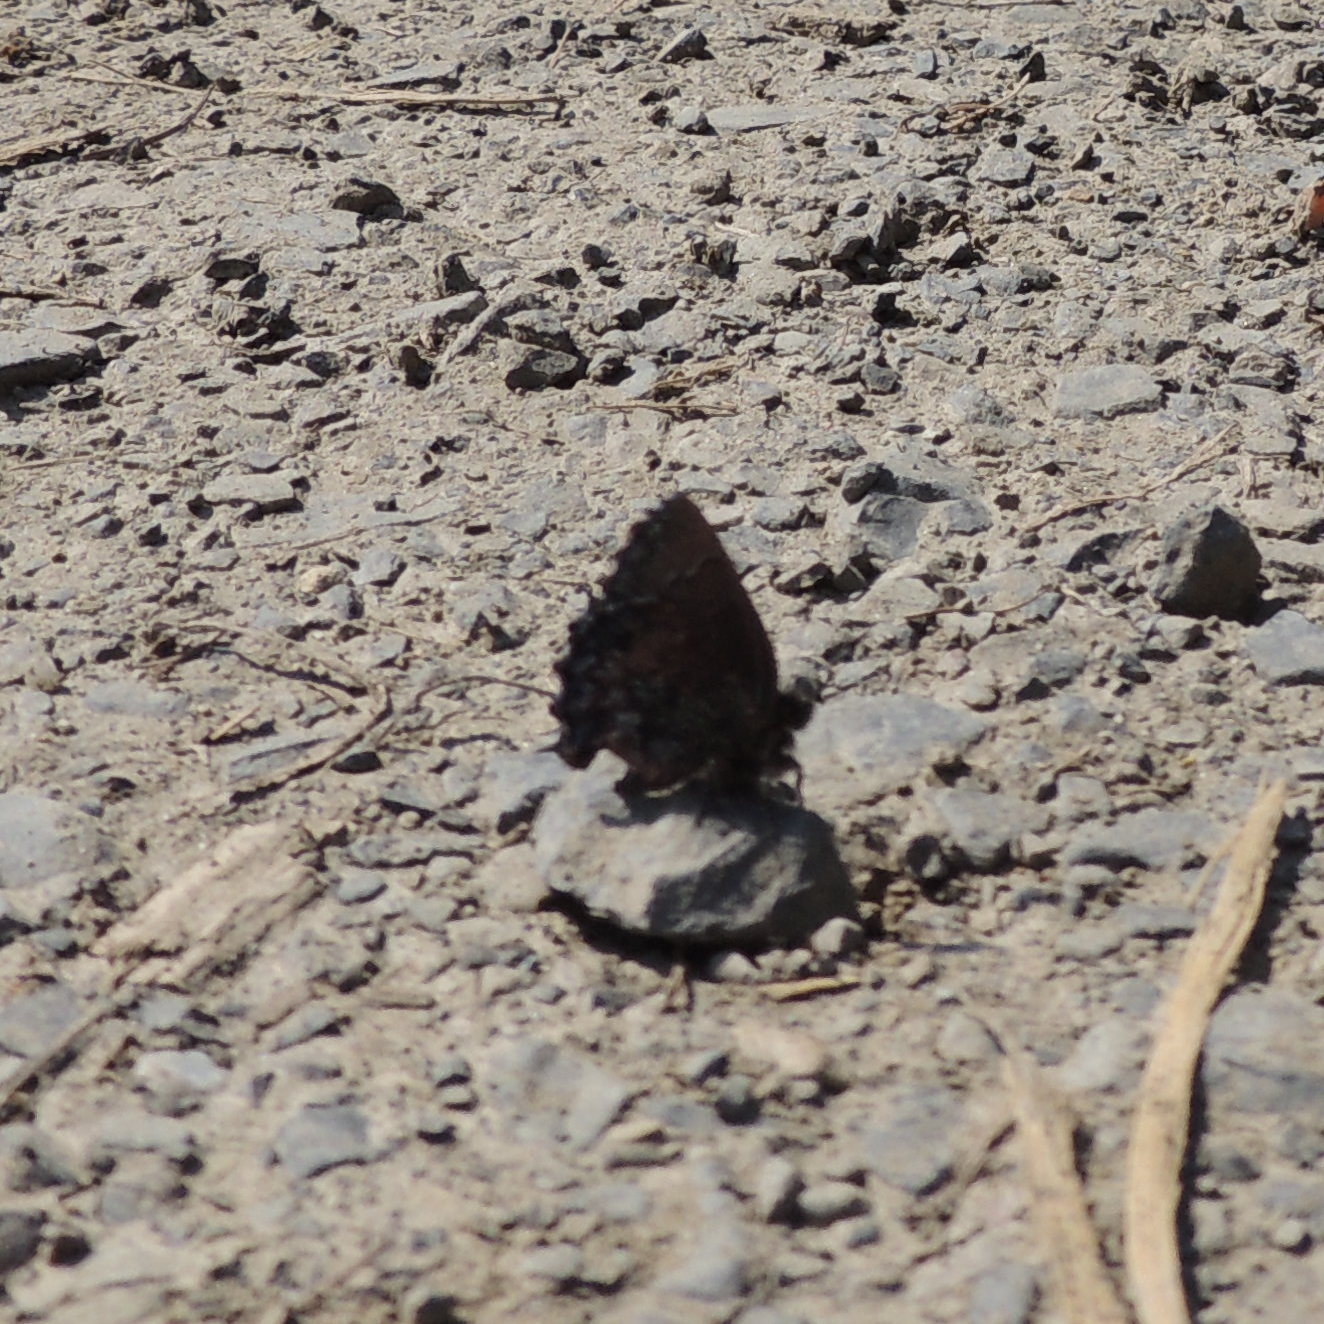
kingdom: Animalia
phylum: Arthropoda
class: Insecta
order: Lepidoptera
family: Lycaenidae
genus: Ginzia
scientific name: Ginzia Ahlbergia frivaldszkyi
